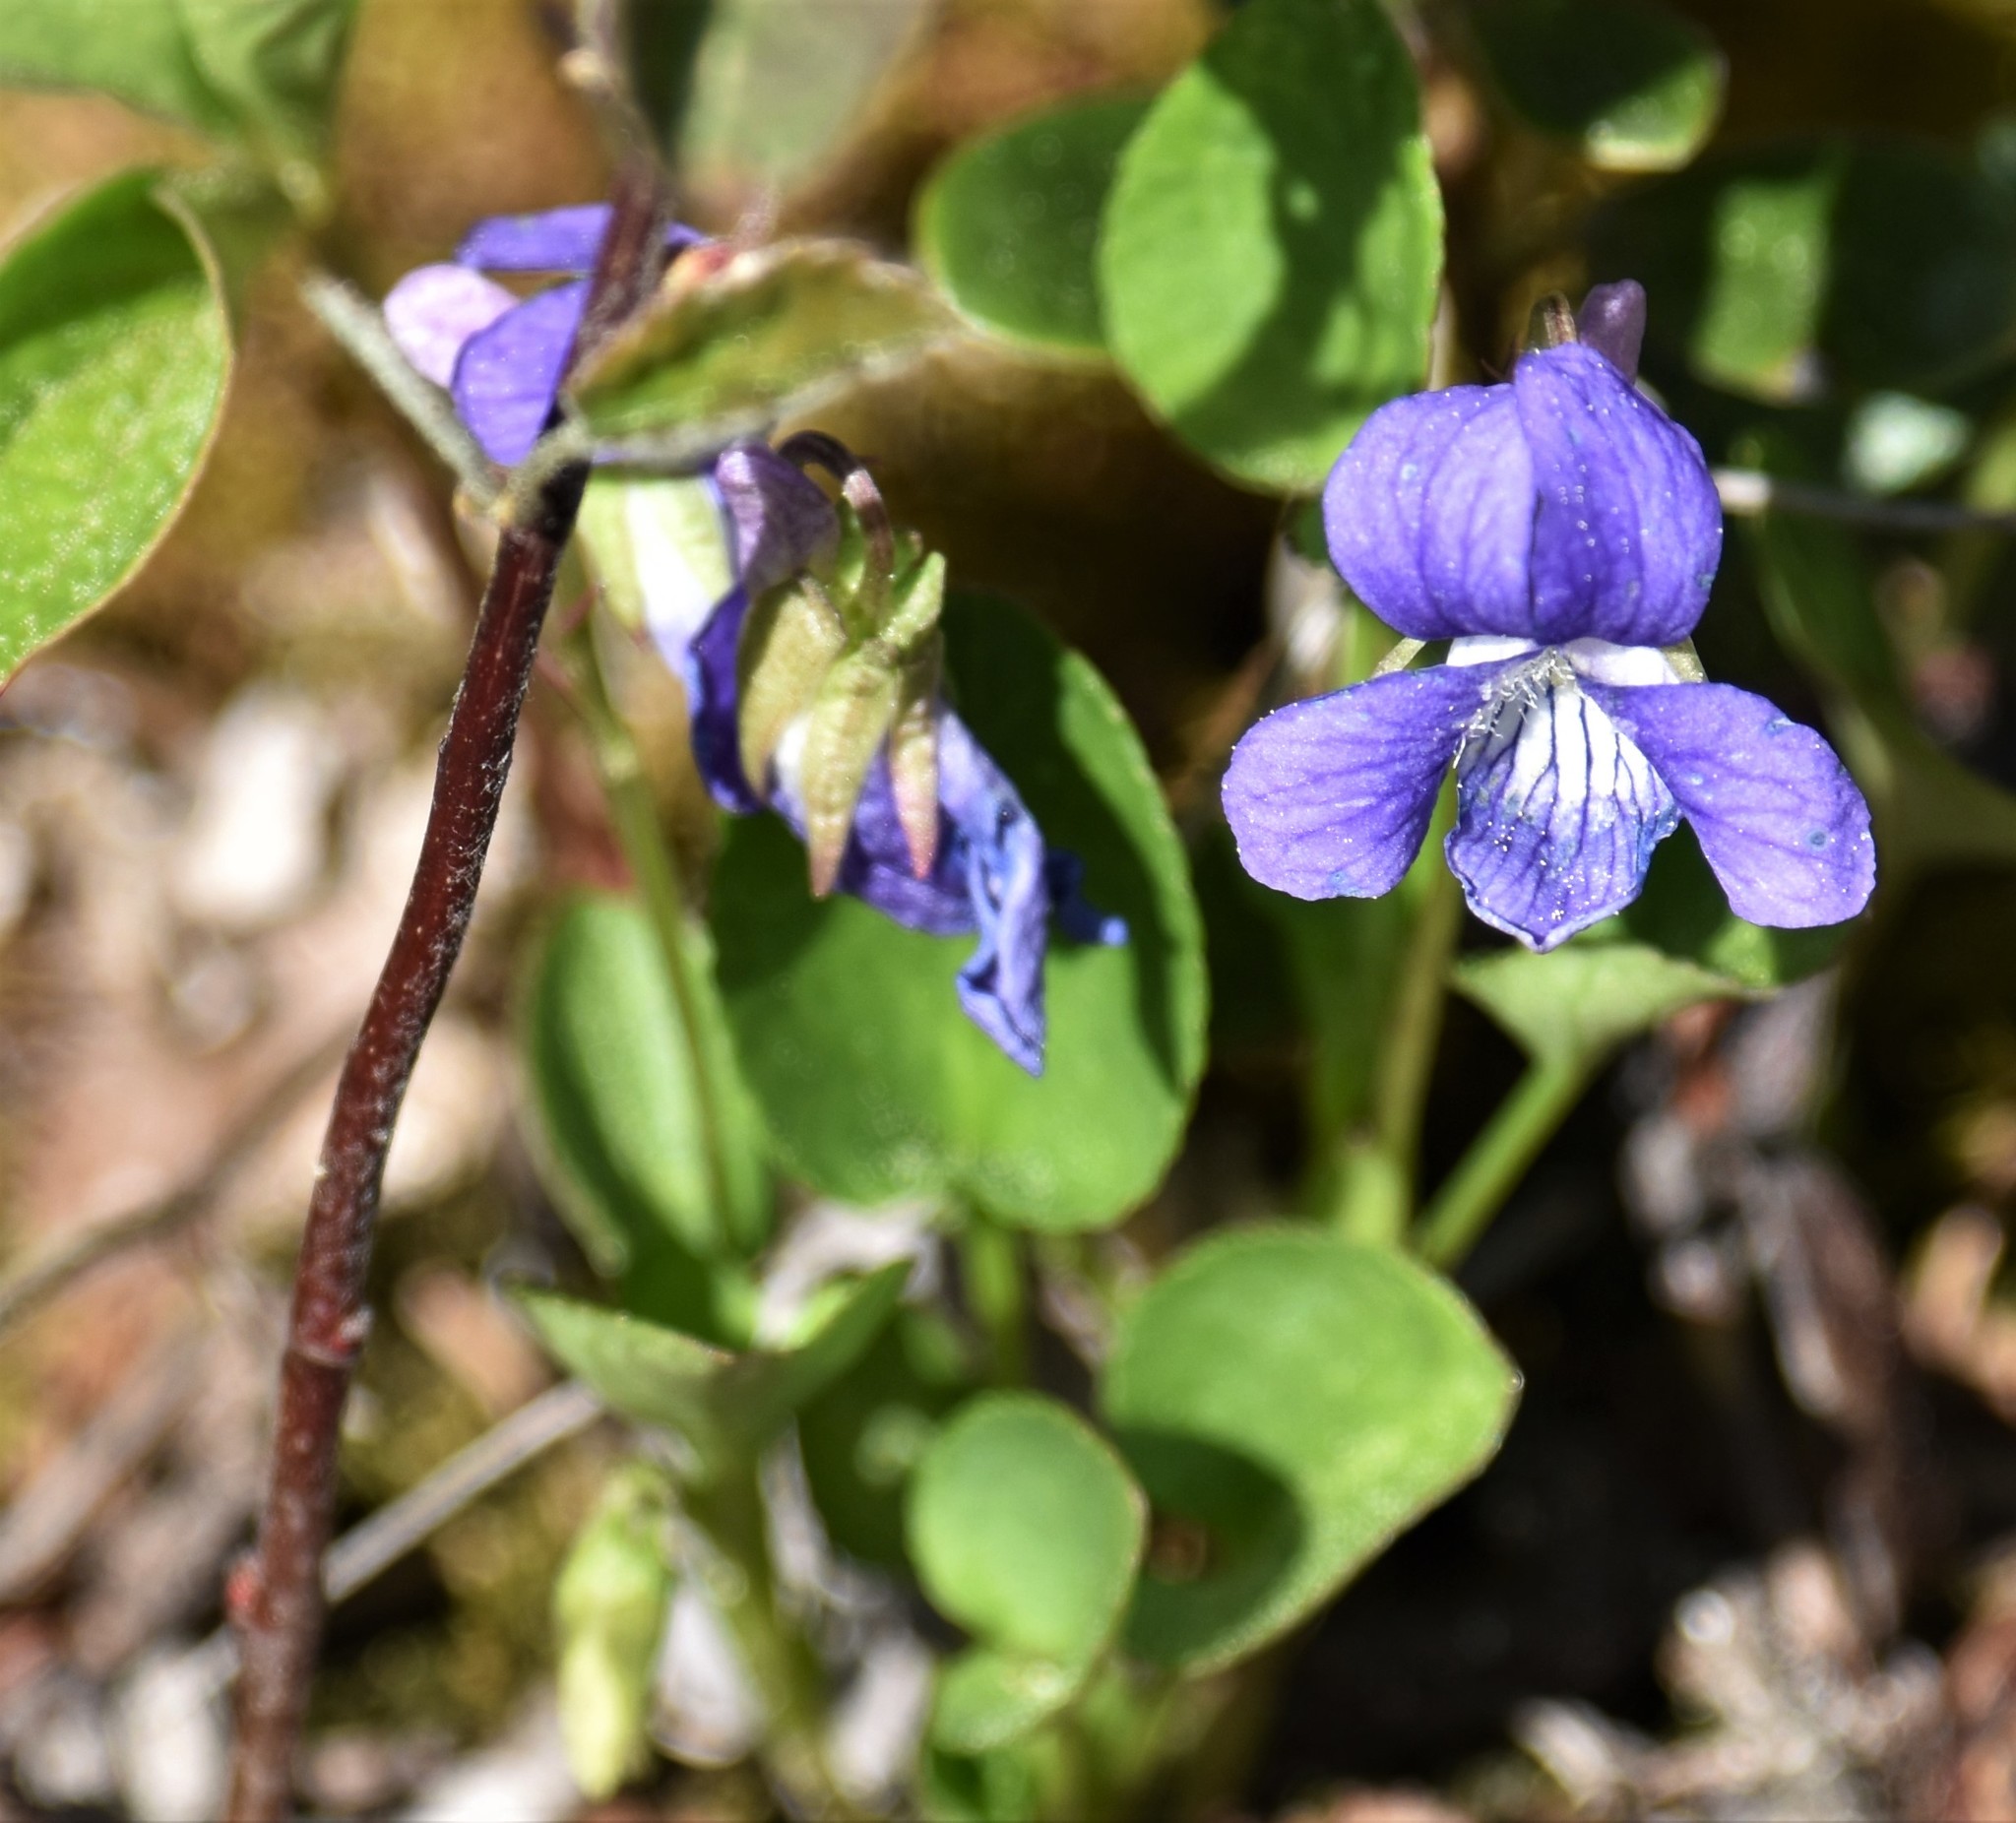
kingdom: Plantae
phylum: Tracheophyta
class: Magnoliopsida
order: Malpighiales
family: Violaceae
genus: Viola
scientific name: Viola adunca
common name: Sand violet
